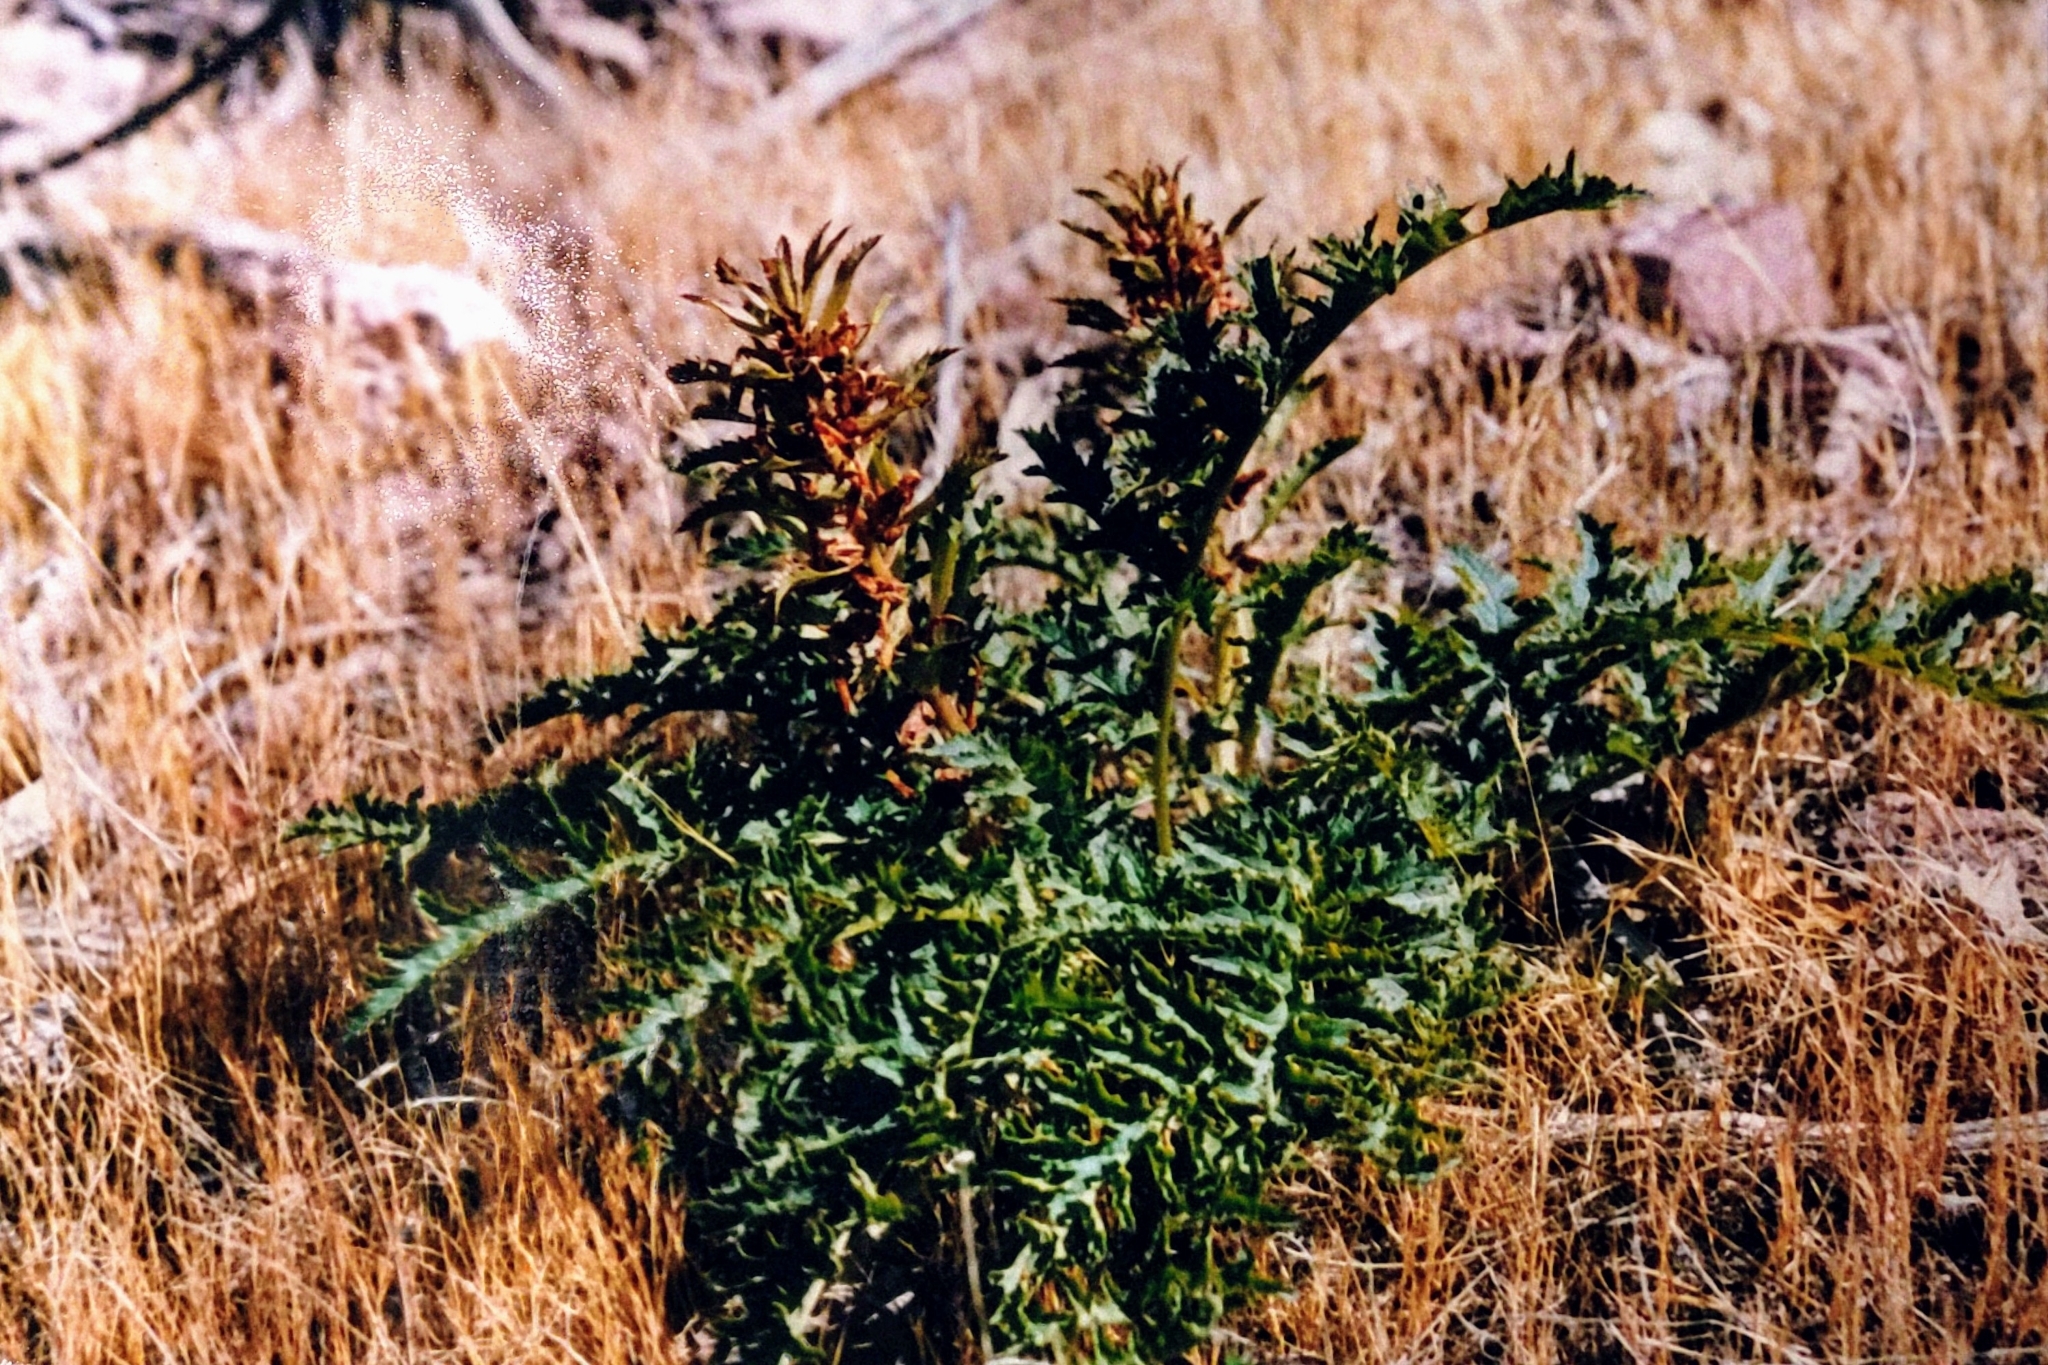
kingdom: Plantae
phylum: Tracheophyta
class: Magnoliopsida
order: Lamiales
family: Orobanchaceae
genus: Pedicularis
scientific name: Pedicularis densiflora
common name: Indian warrior
